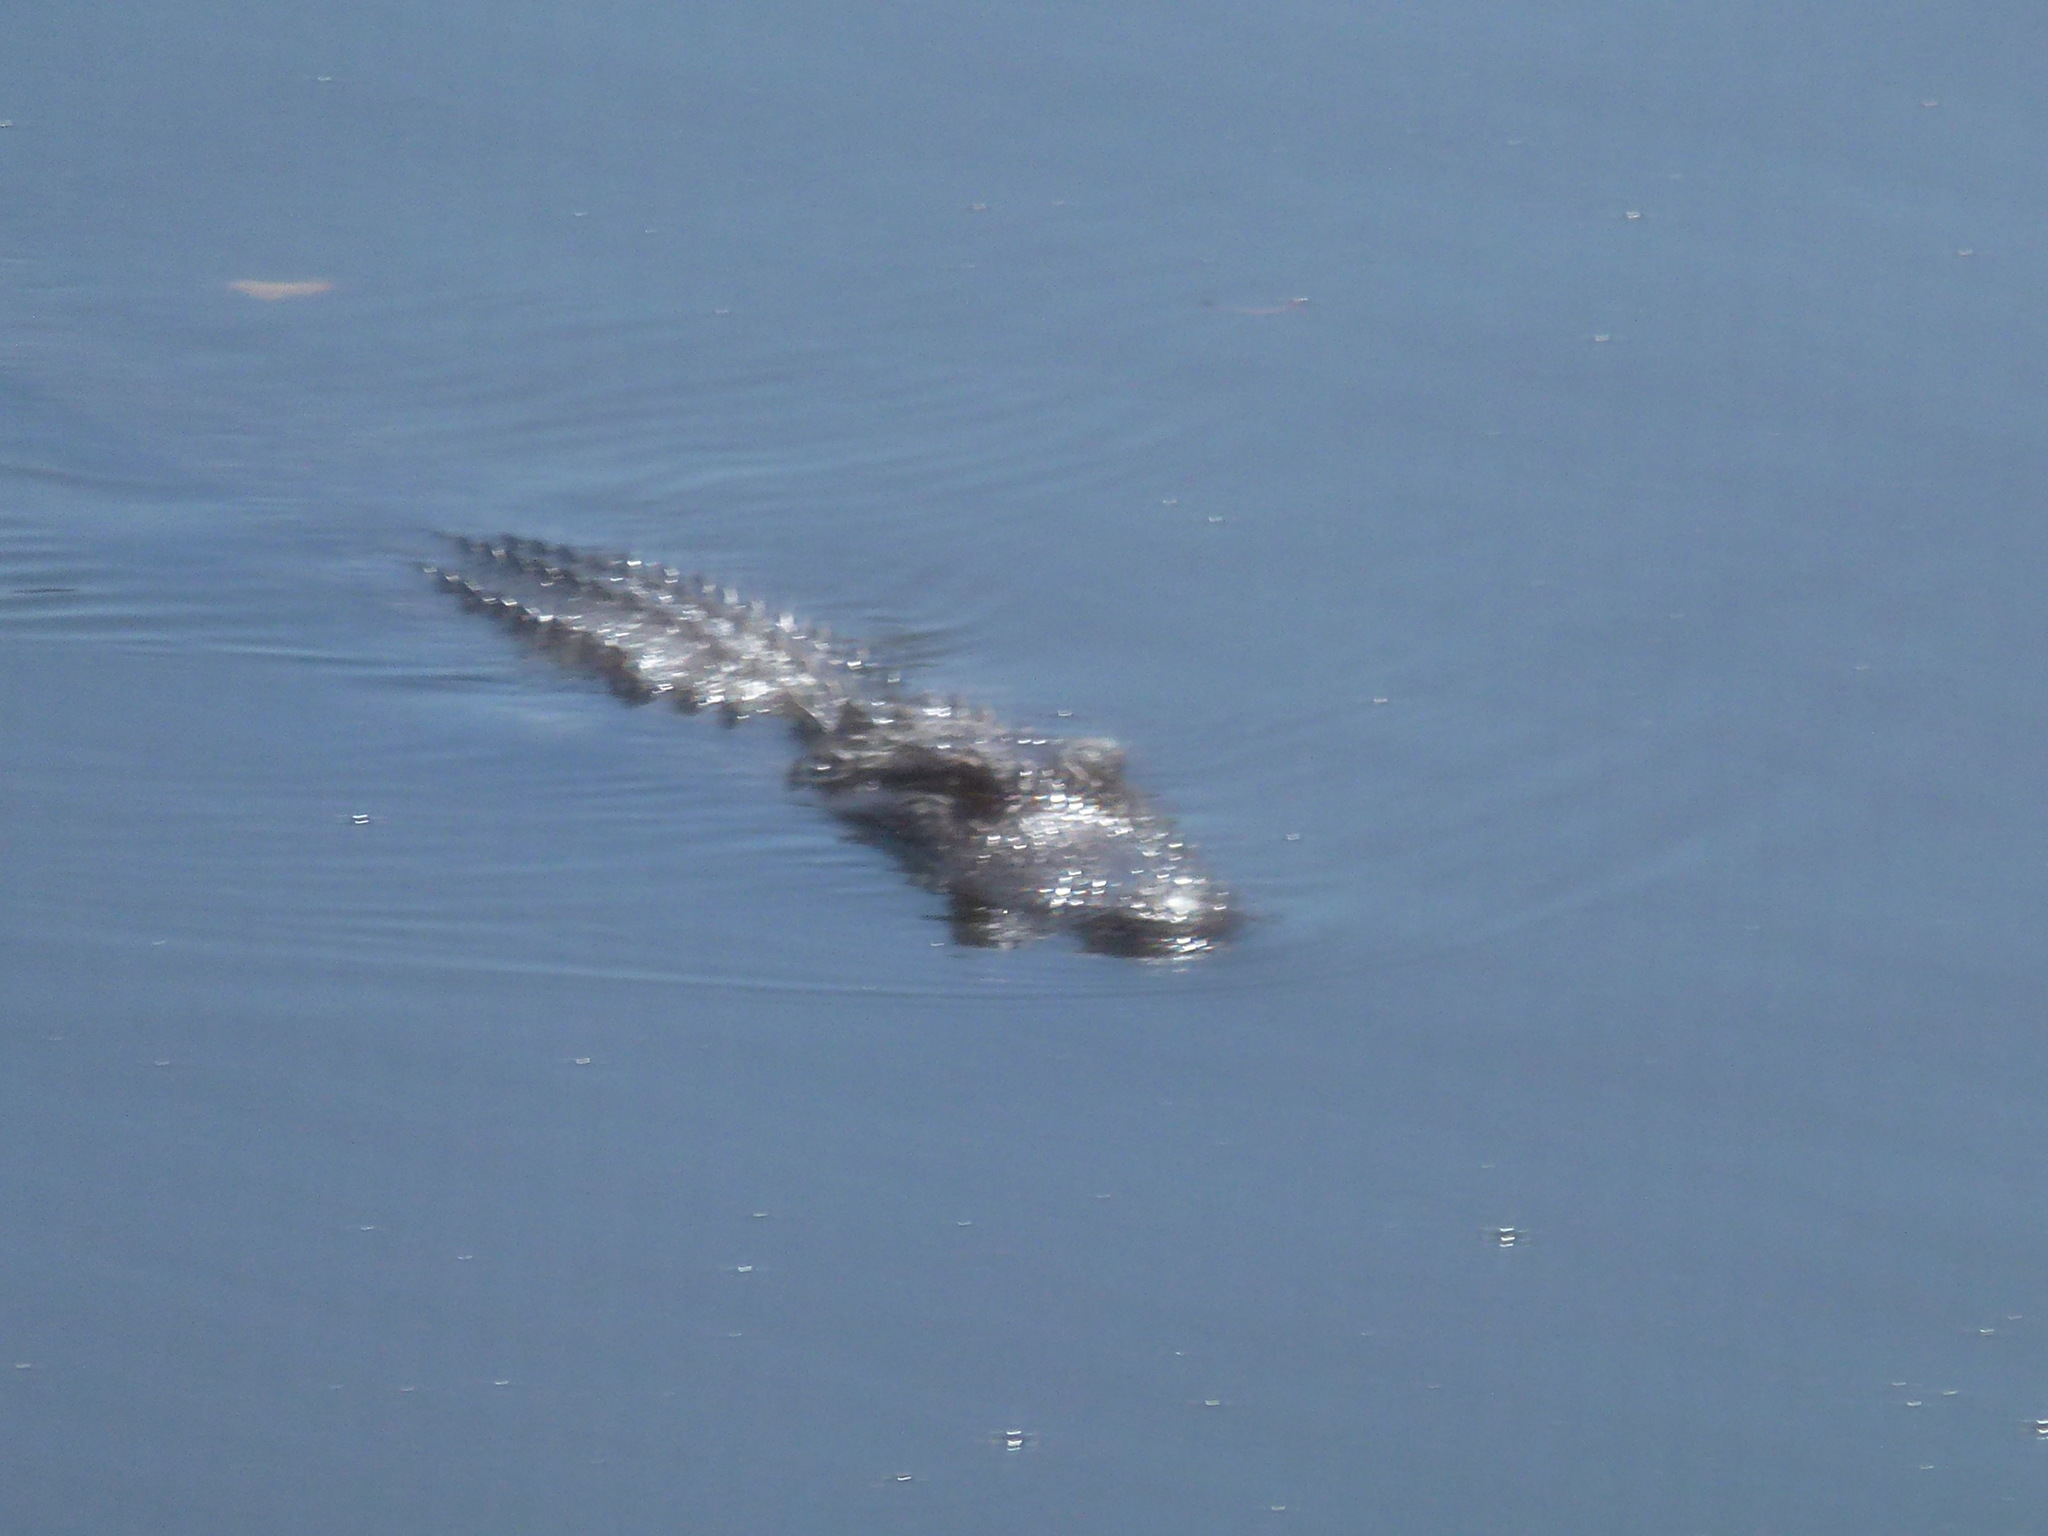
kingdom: Animalia
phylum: Chordata
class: Crocodylia
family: Alligatoridae
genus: Alligator
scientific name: Alligator mississippiensis
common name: American alligator
